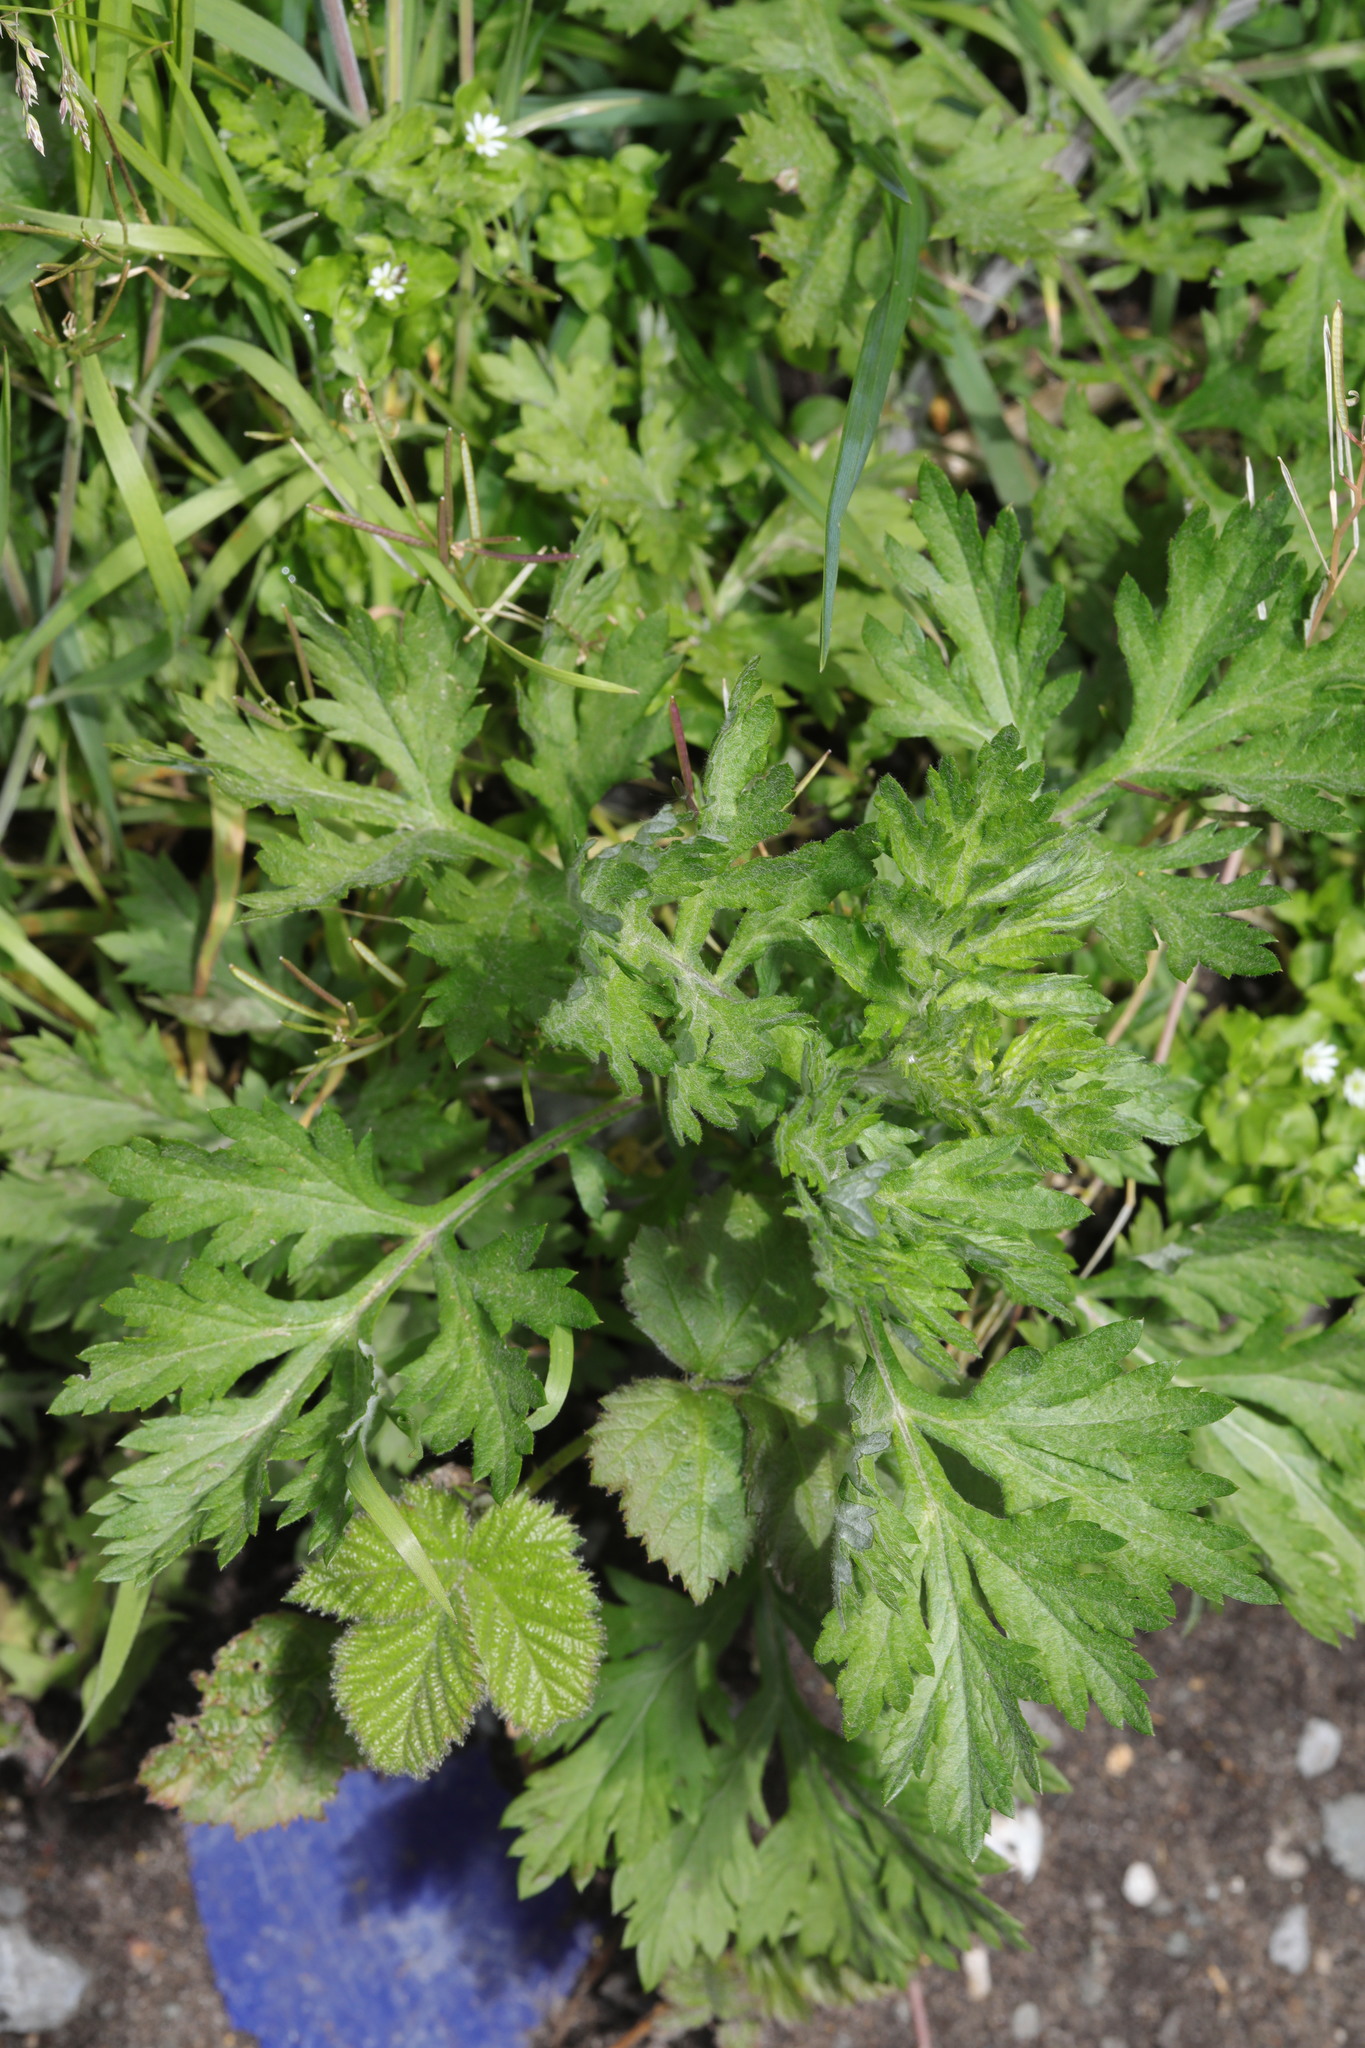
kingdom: Plantae
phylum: Tracheophyta
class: Magnoliopsida
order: Asterales
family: Asteraceae
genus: Artemisia
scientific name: Artemisia vulgaris
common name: Mugwort
